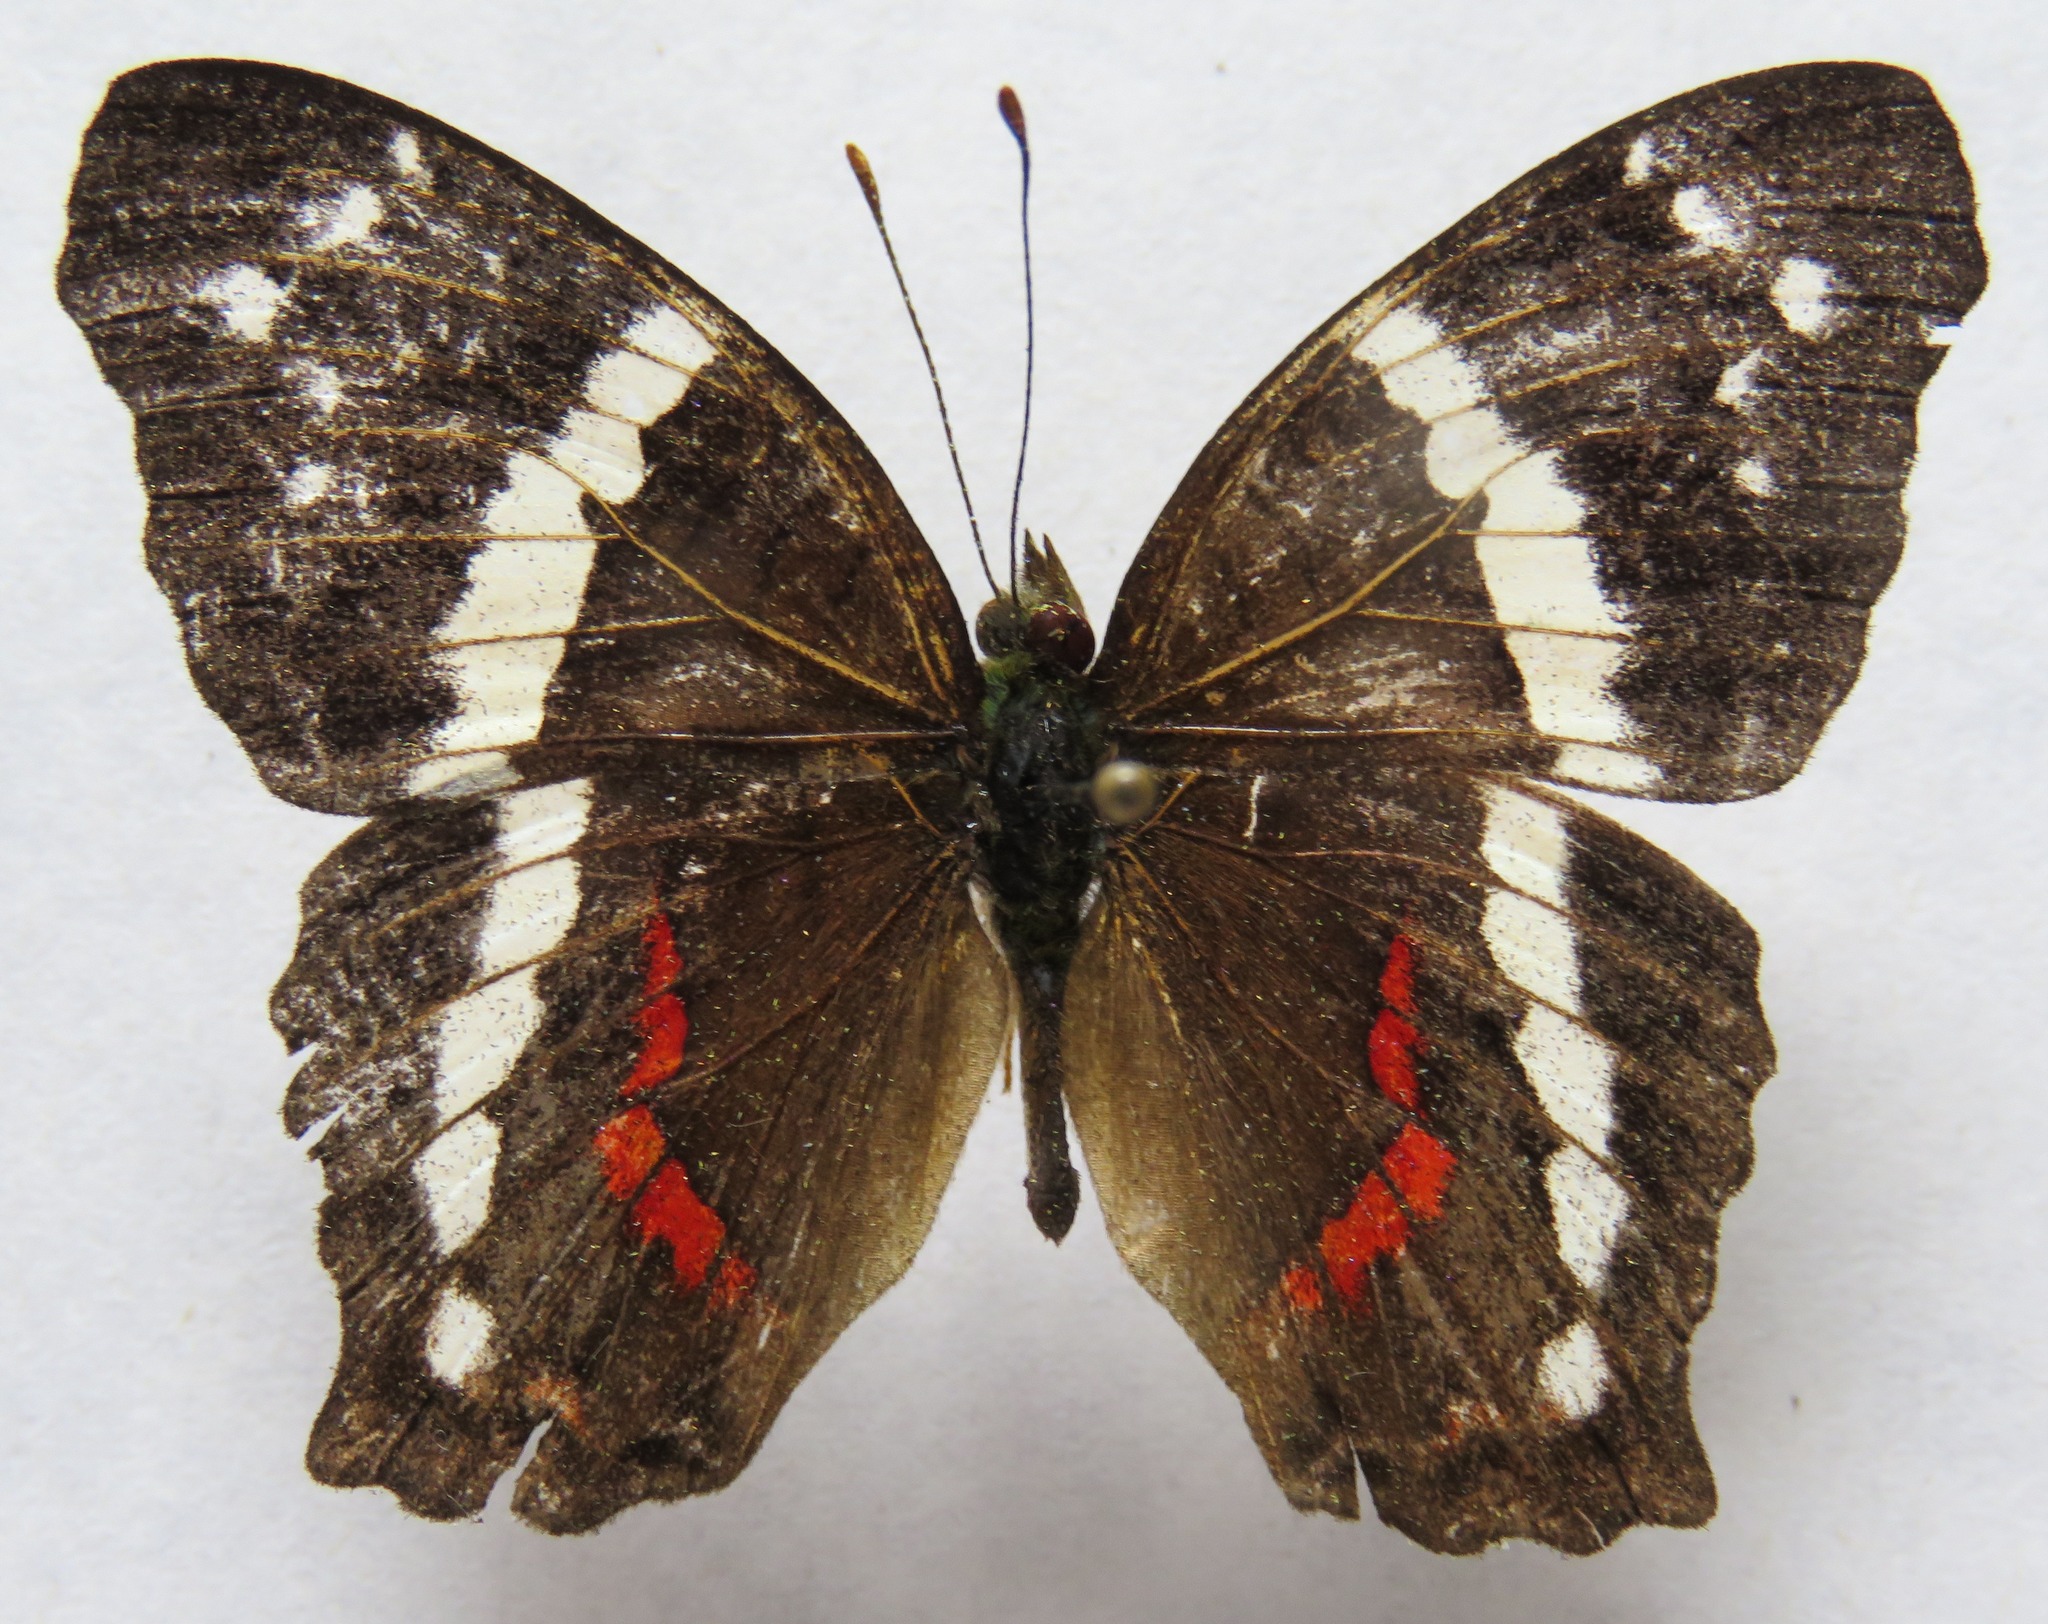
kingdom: Animalia
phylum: Arthropoda
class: Insecta
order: Lepidoptera
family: Nymphalidae
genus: Anartia
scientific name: Anartia fatima
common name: Banded peacock
